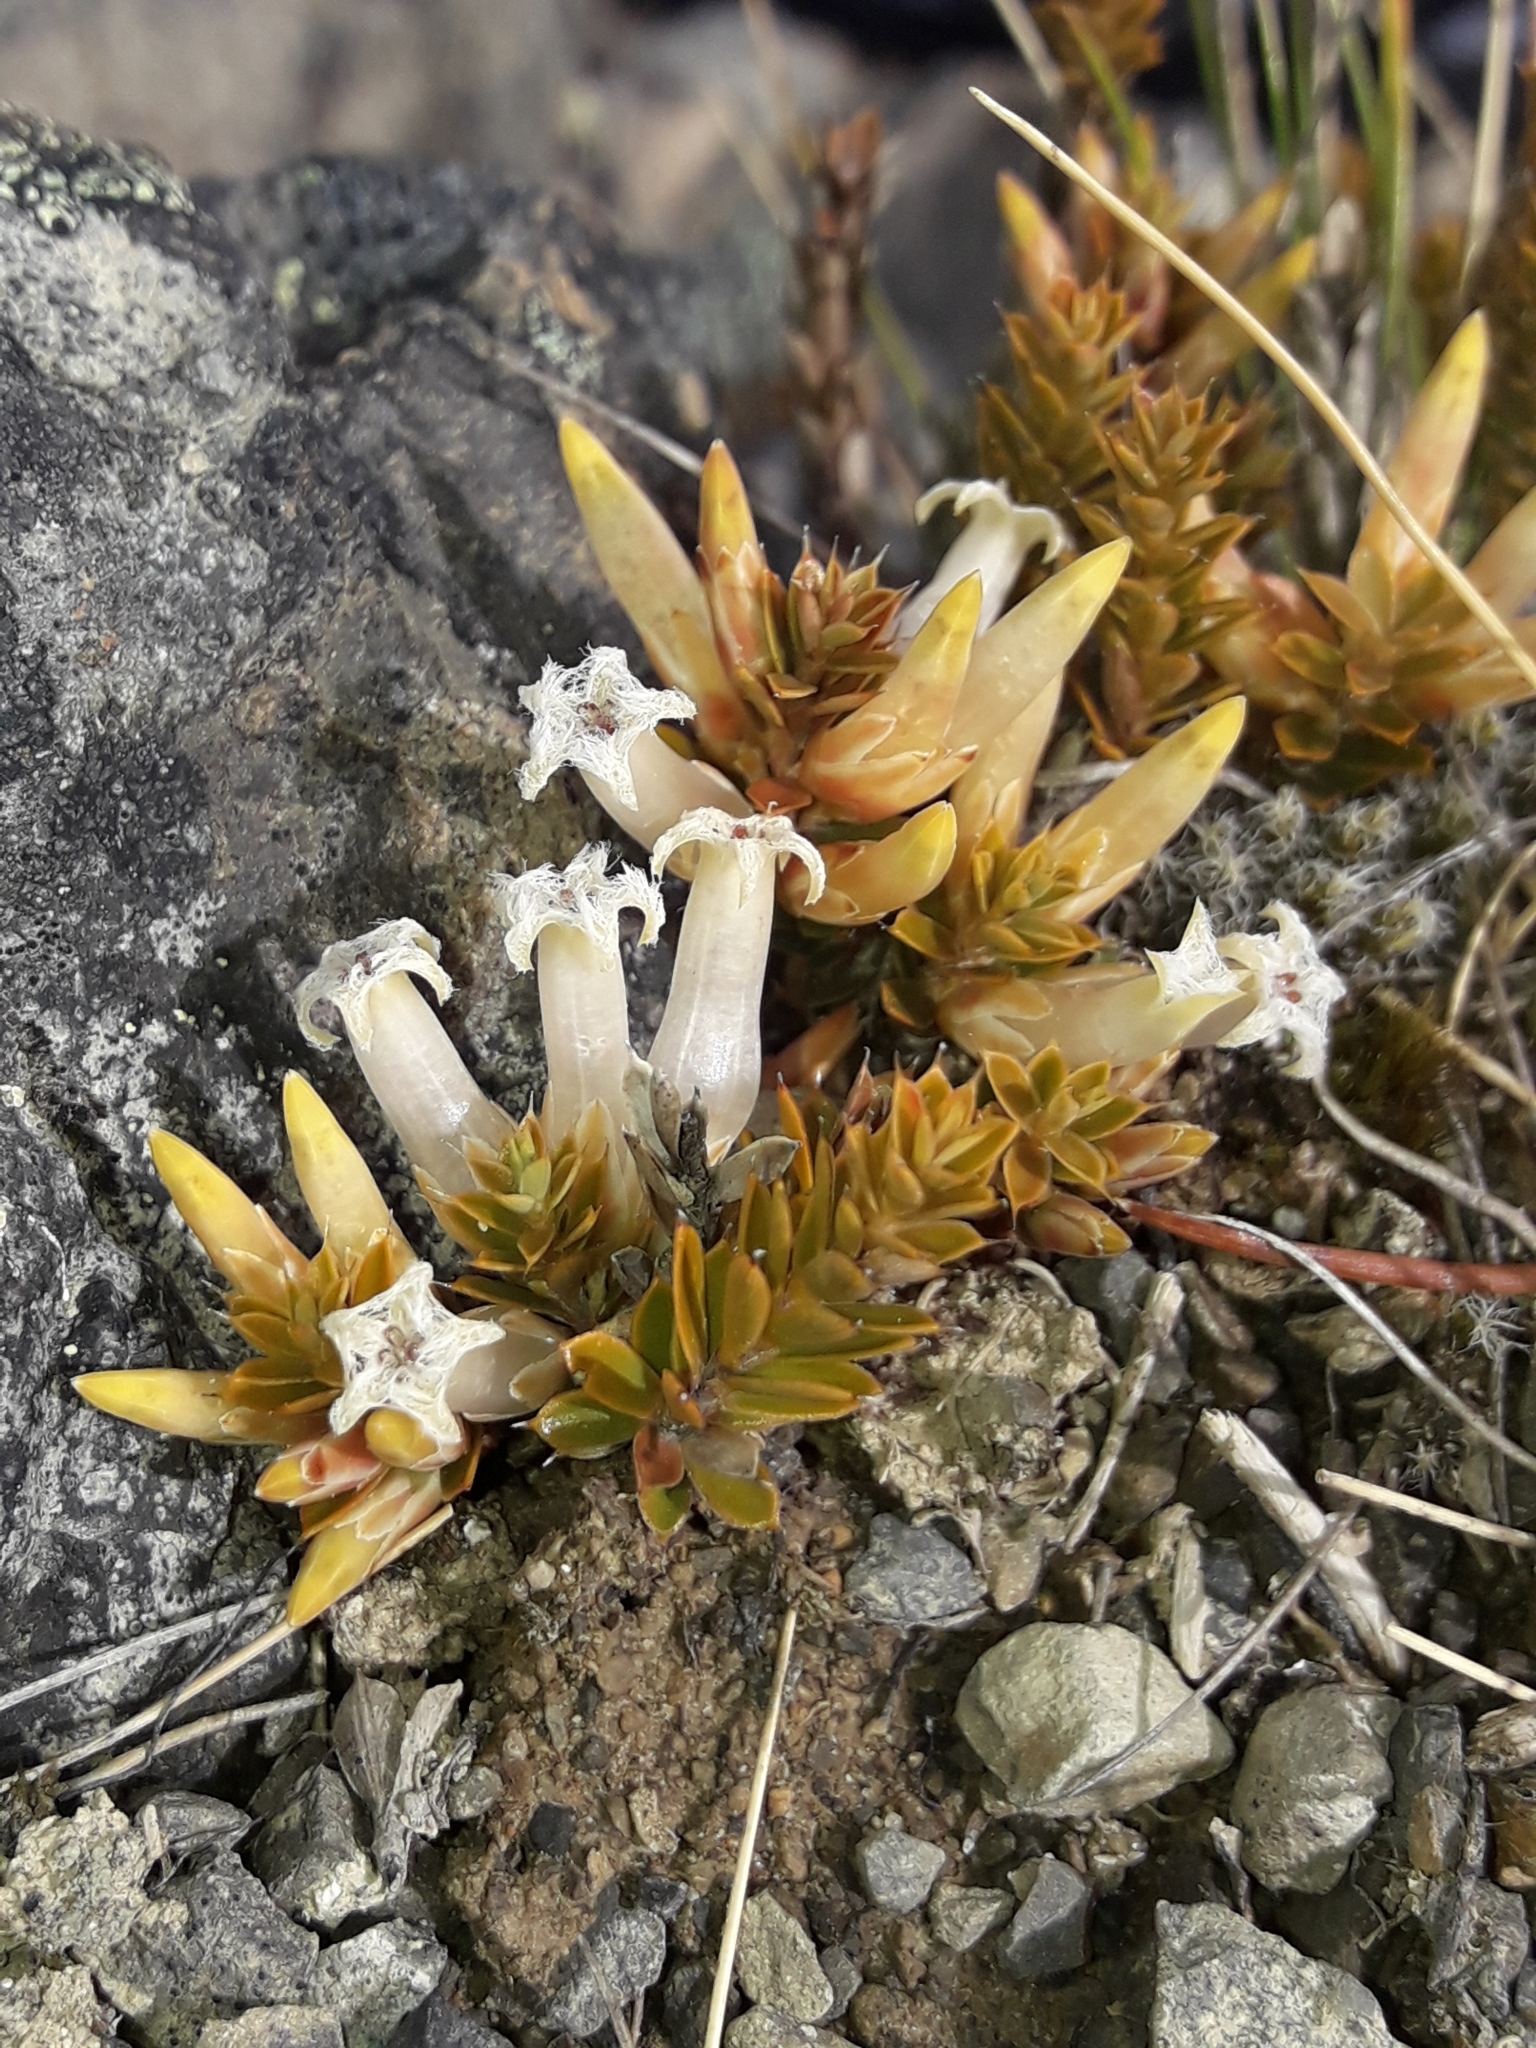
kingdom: Plantae
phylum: Tracheophyta
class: Magnoliopsida
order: Ericales
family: Ericaceae
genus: Styphelia
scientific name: Styphelia nesophila
